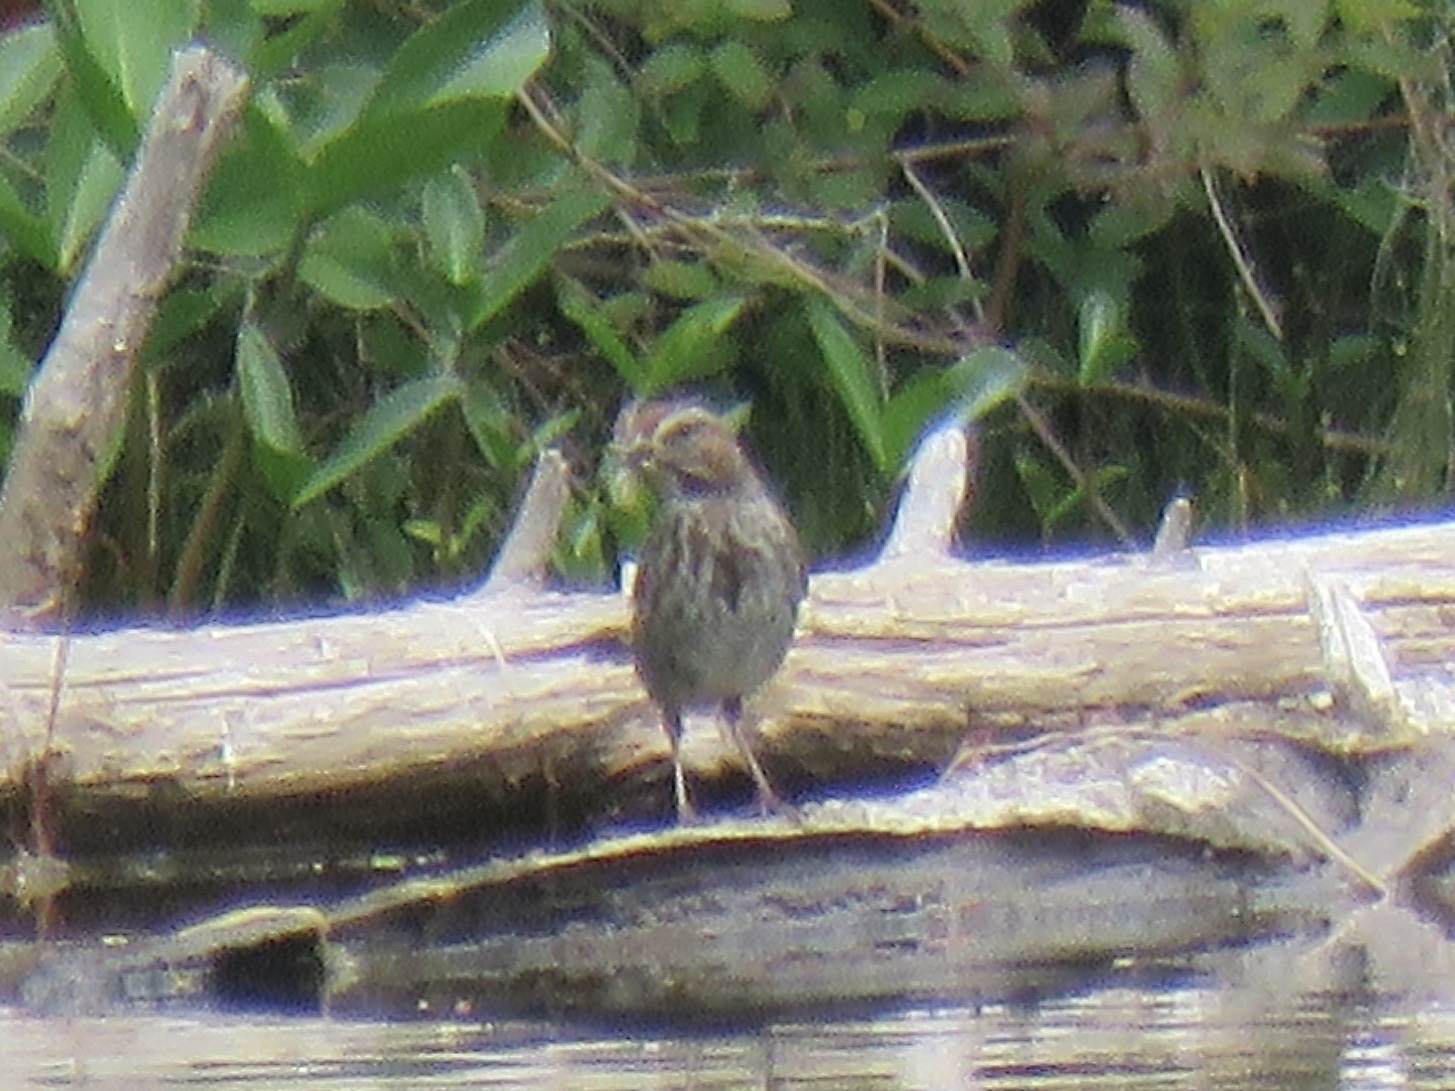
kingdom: Animalia
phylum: Chordata
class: Aves
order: Passeriformes
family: Passerellidae
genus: Melospiza
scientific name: Melospiza melodia
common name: Song sparrow
